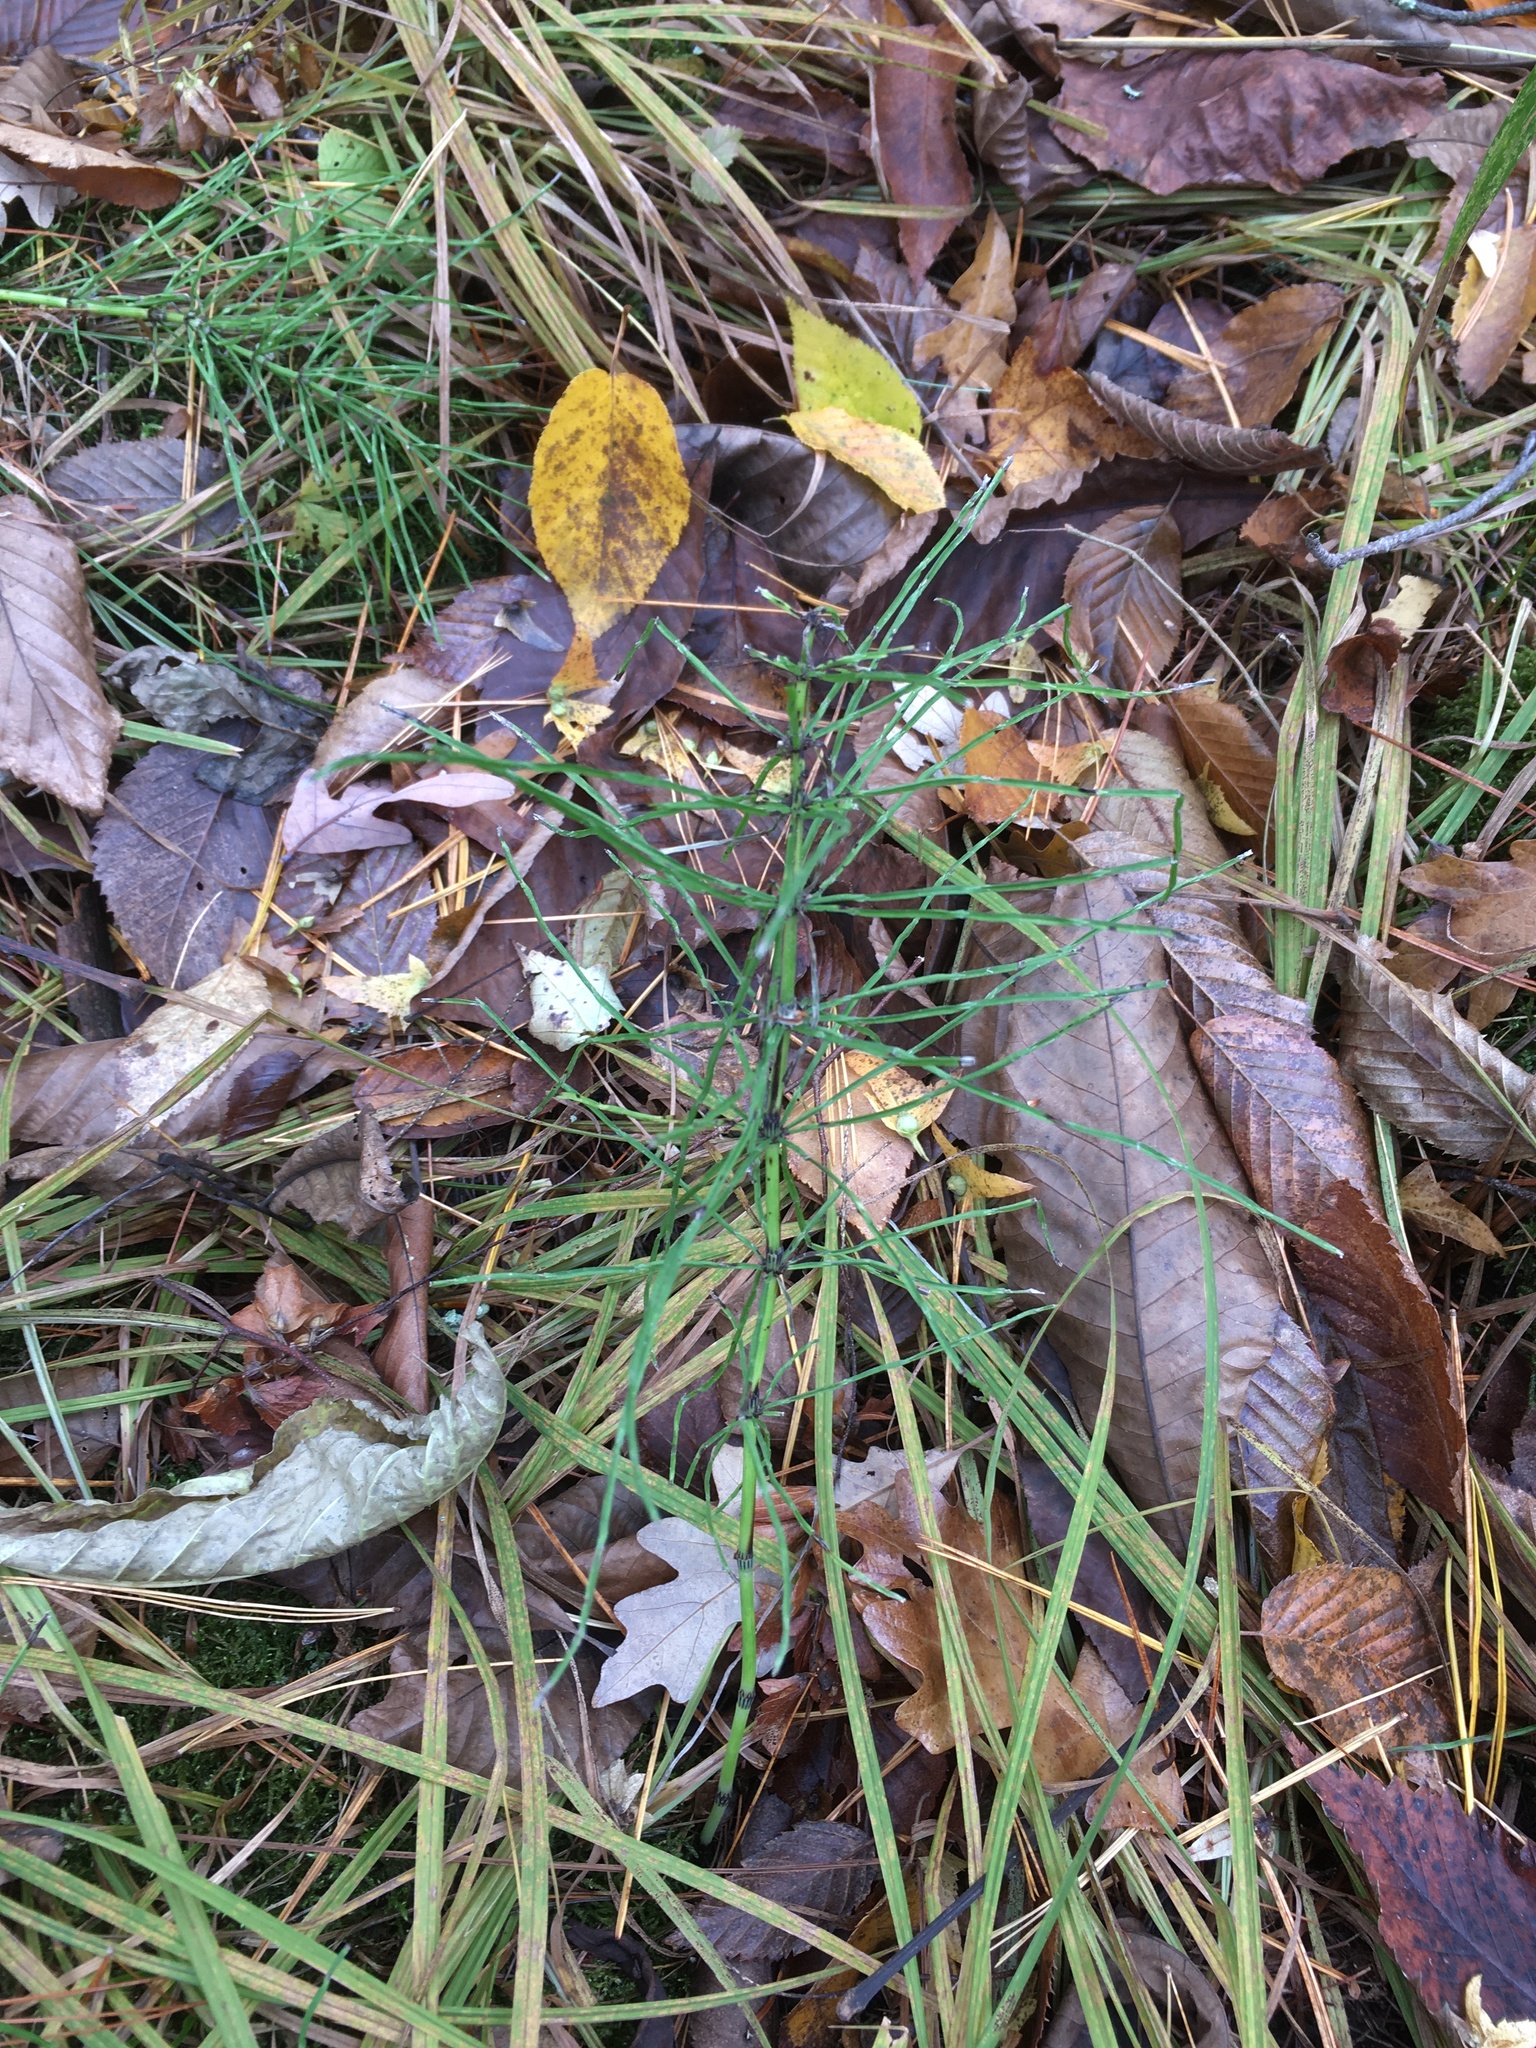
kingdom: Plantae
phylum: Tracheophyta
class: Polypodiopsida
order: Equisetales
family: Equisetaceae
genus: Equisetum
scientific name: Equisetum arvense
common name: Field horsetail
